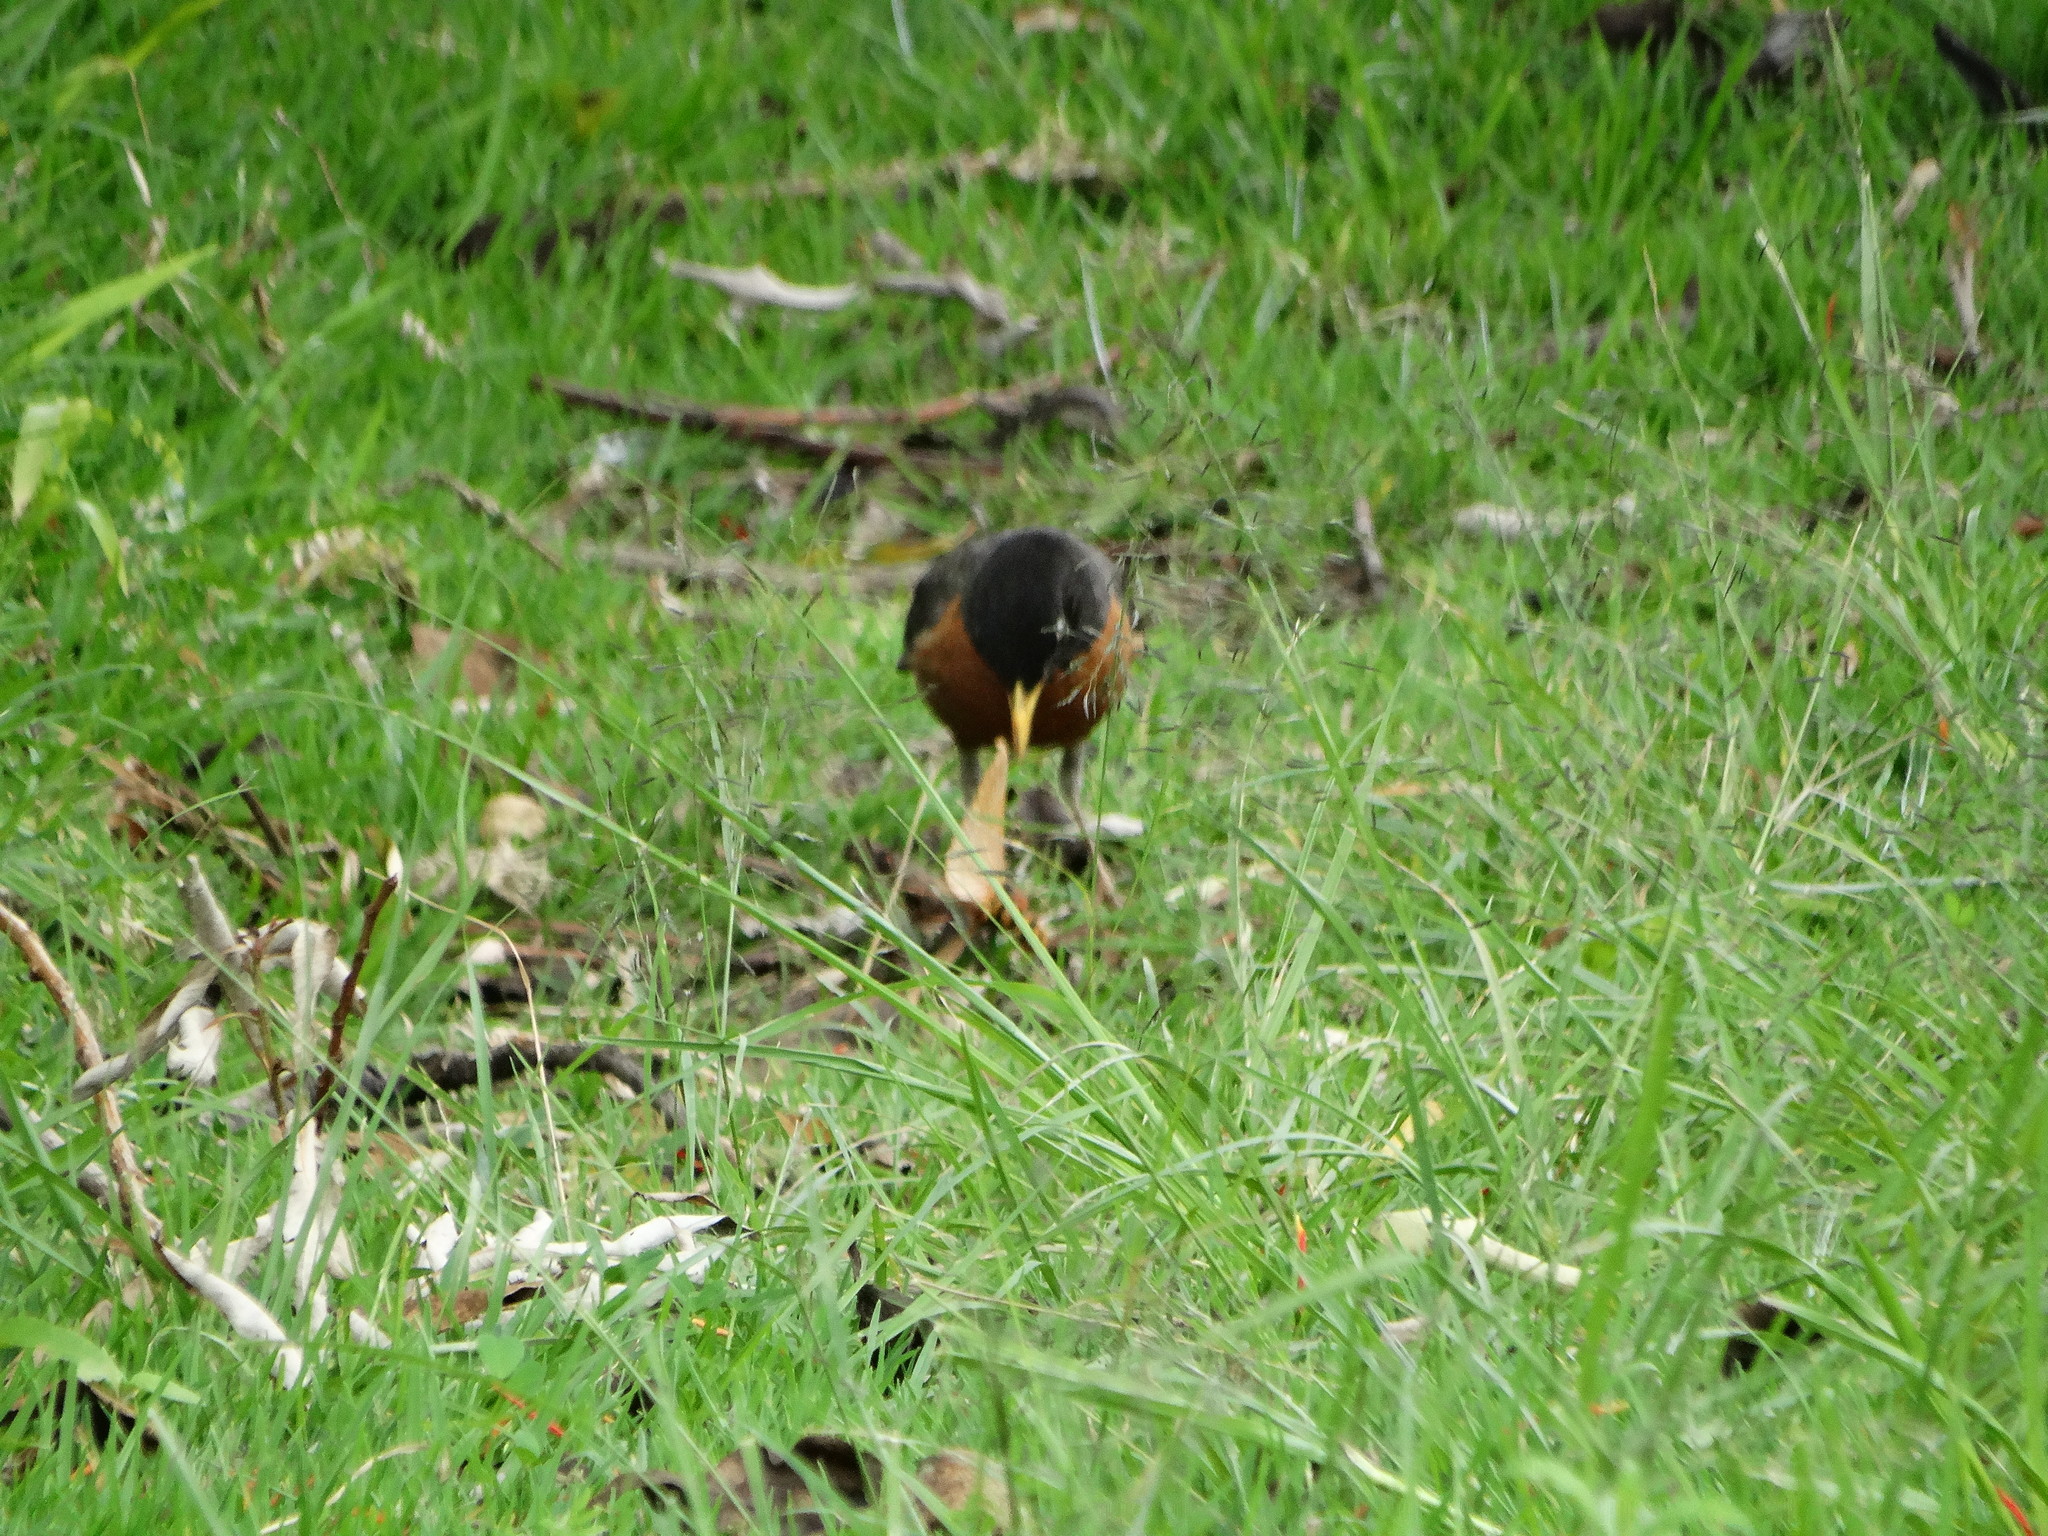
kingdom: Animalia
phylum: Chordata
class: Aves
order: Passeriformes
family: Turdidae
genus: Turdus
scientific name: Turdus migratorius
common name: American robin
